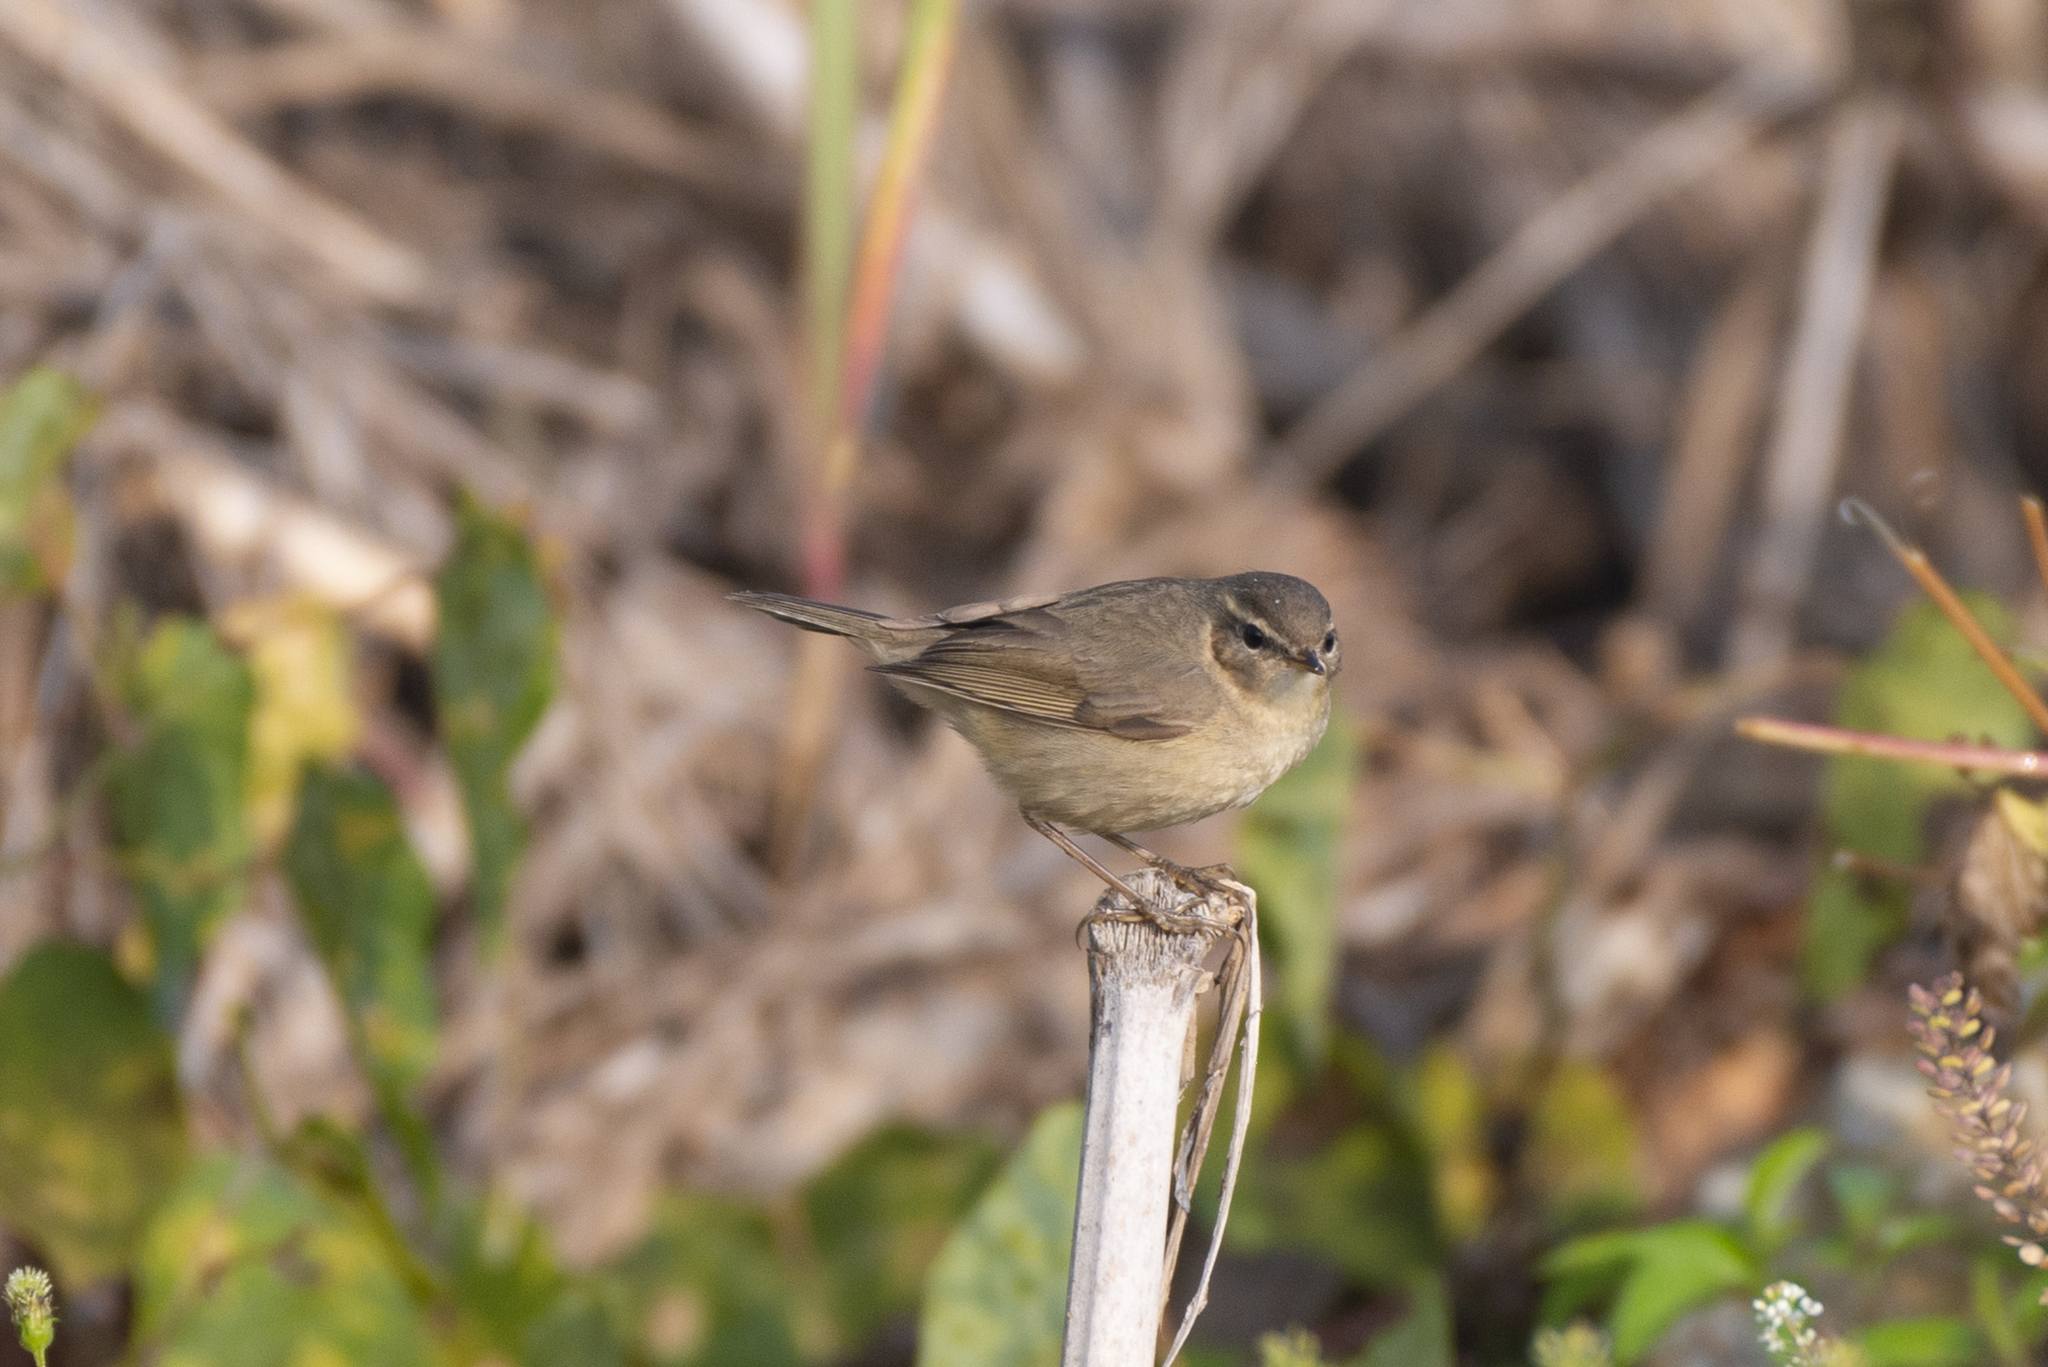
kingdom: Animalia
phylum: Chordata
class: Aves
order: Passeriformes
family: Phylloscopidae
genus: Phylloscopus
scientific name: Phylloscopus fuscatus
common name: Dusky warbler
